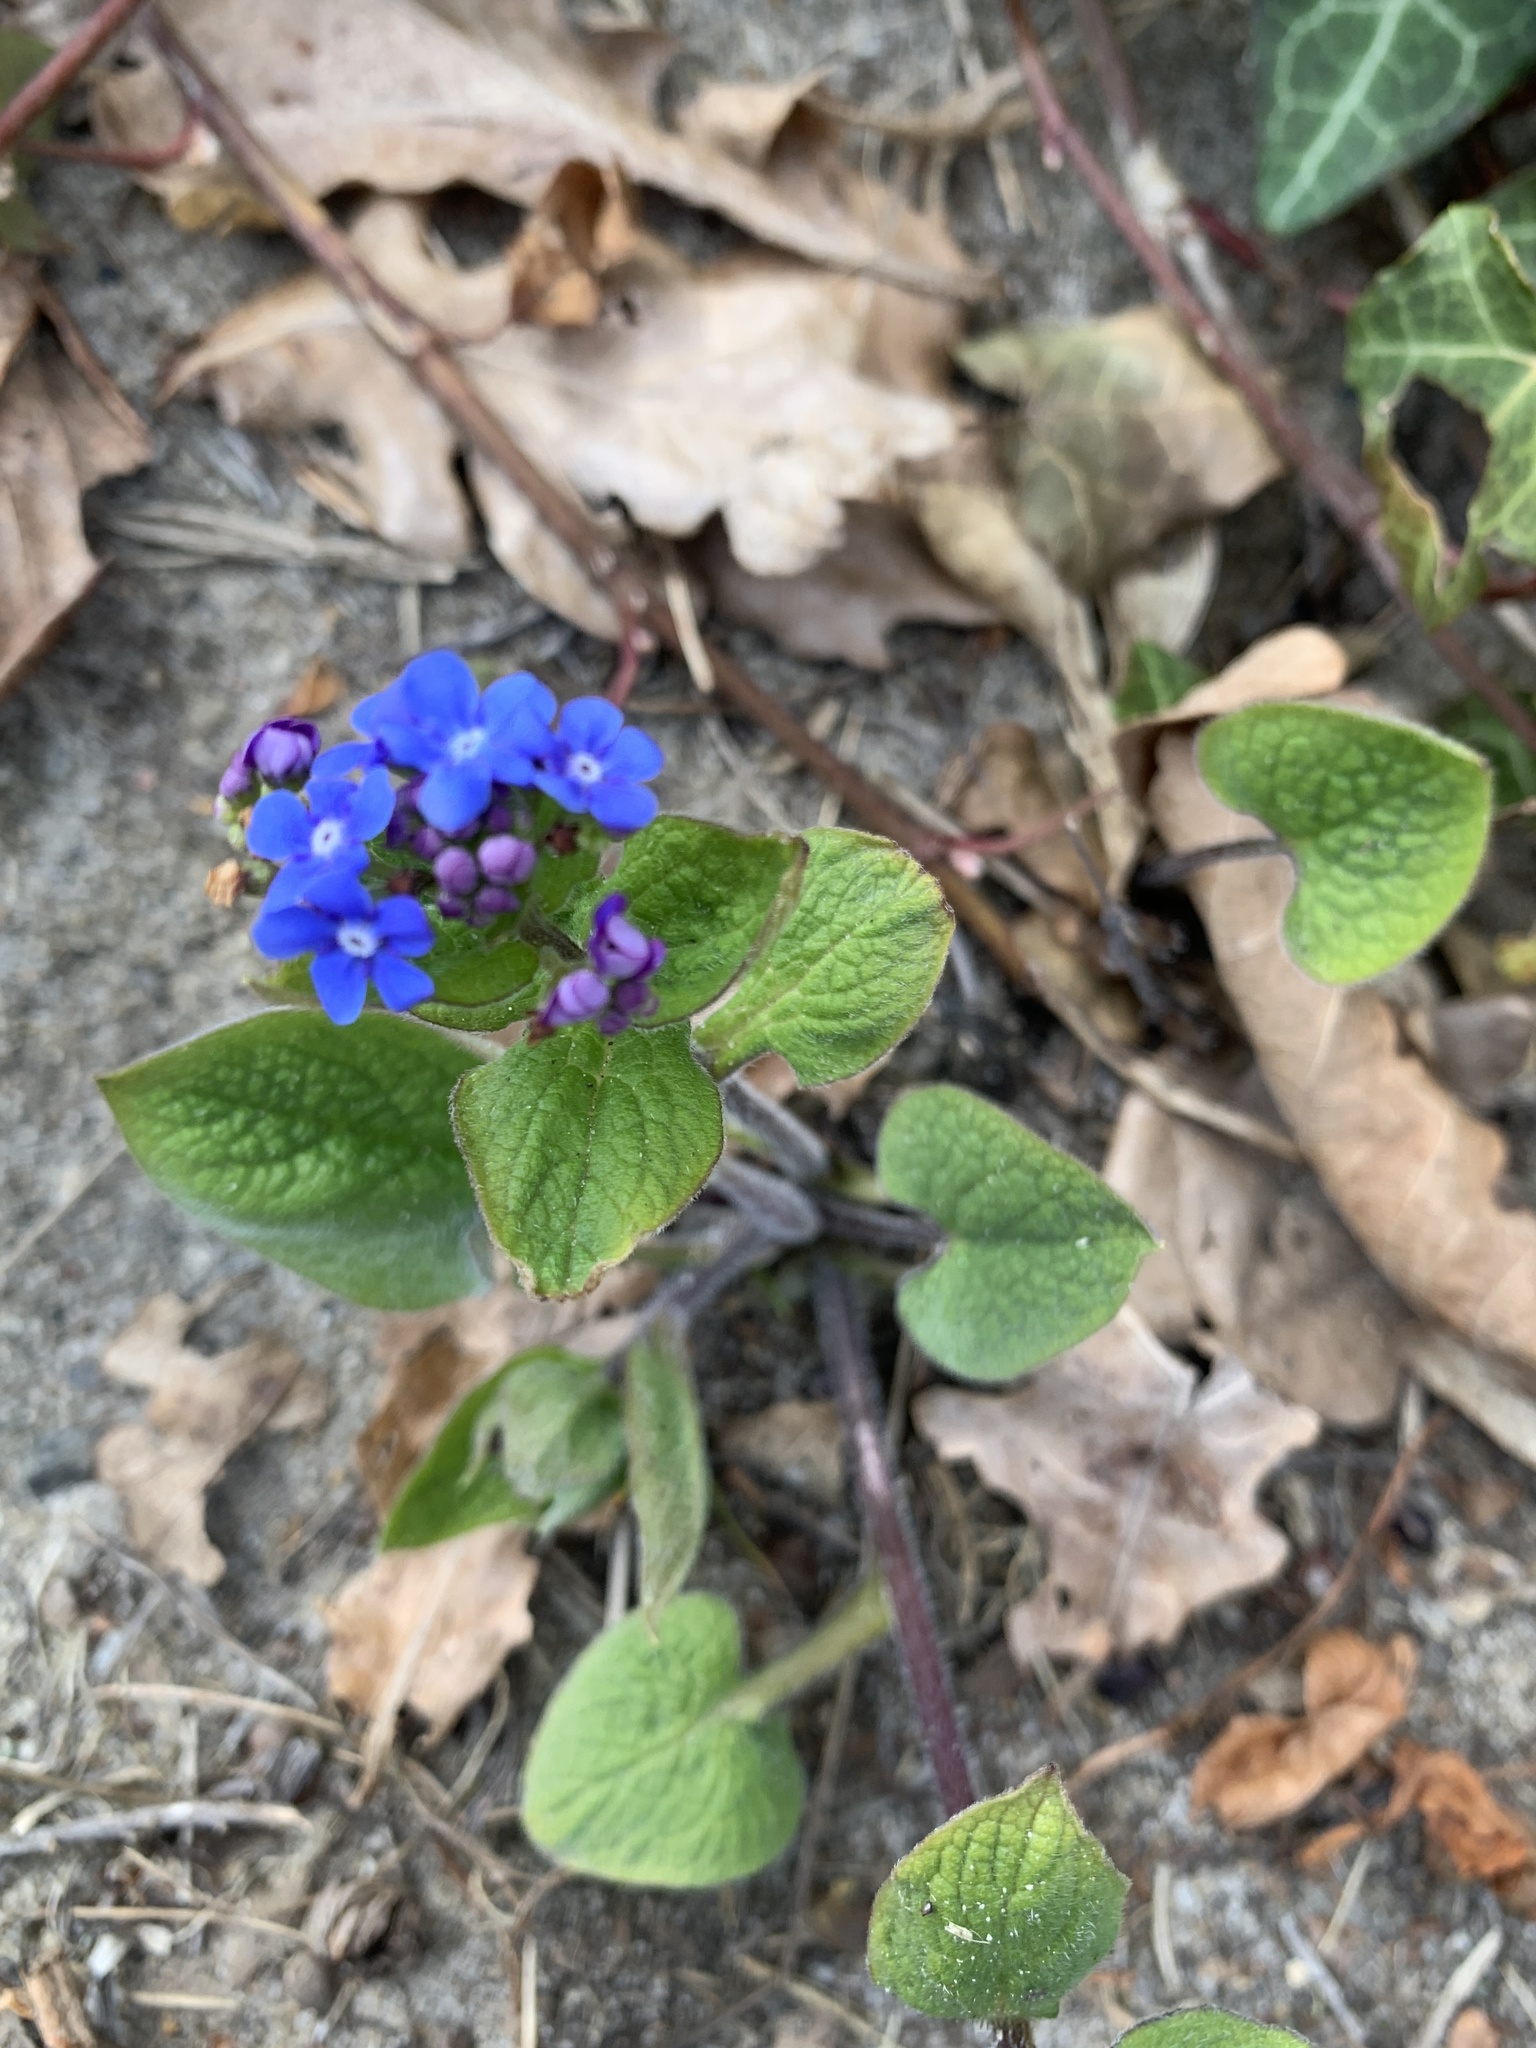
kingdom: Plantae
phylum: Tracheophyta
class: Magnoliopsida
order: Boraginales
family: Boraginaceae
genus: Brunnera
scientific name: Brunnera macrophylla
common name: Great forget-me-not
